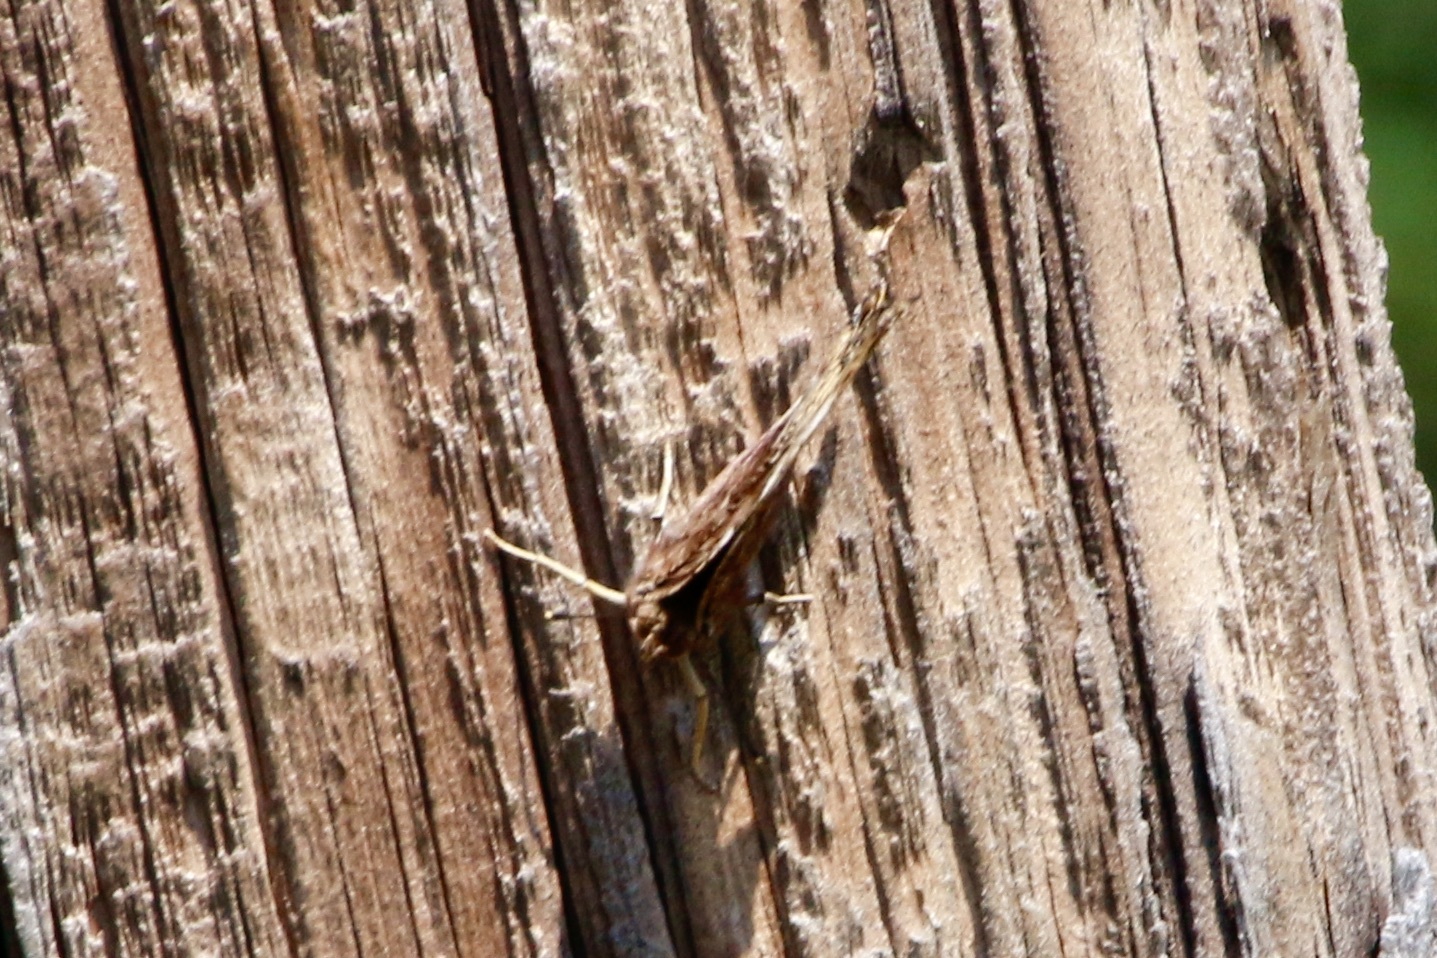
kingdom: Animalia
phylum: Arthropoda
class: Insecta
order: Lepidoptera
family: Nymphalidae
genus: Polygonia
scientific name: Polygonia vaualbum
